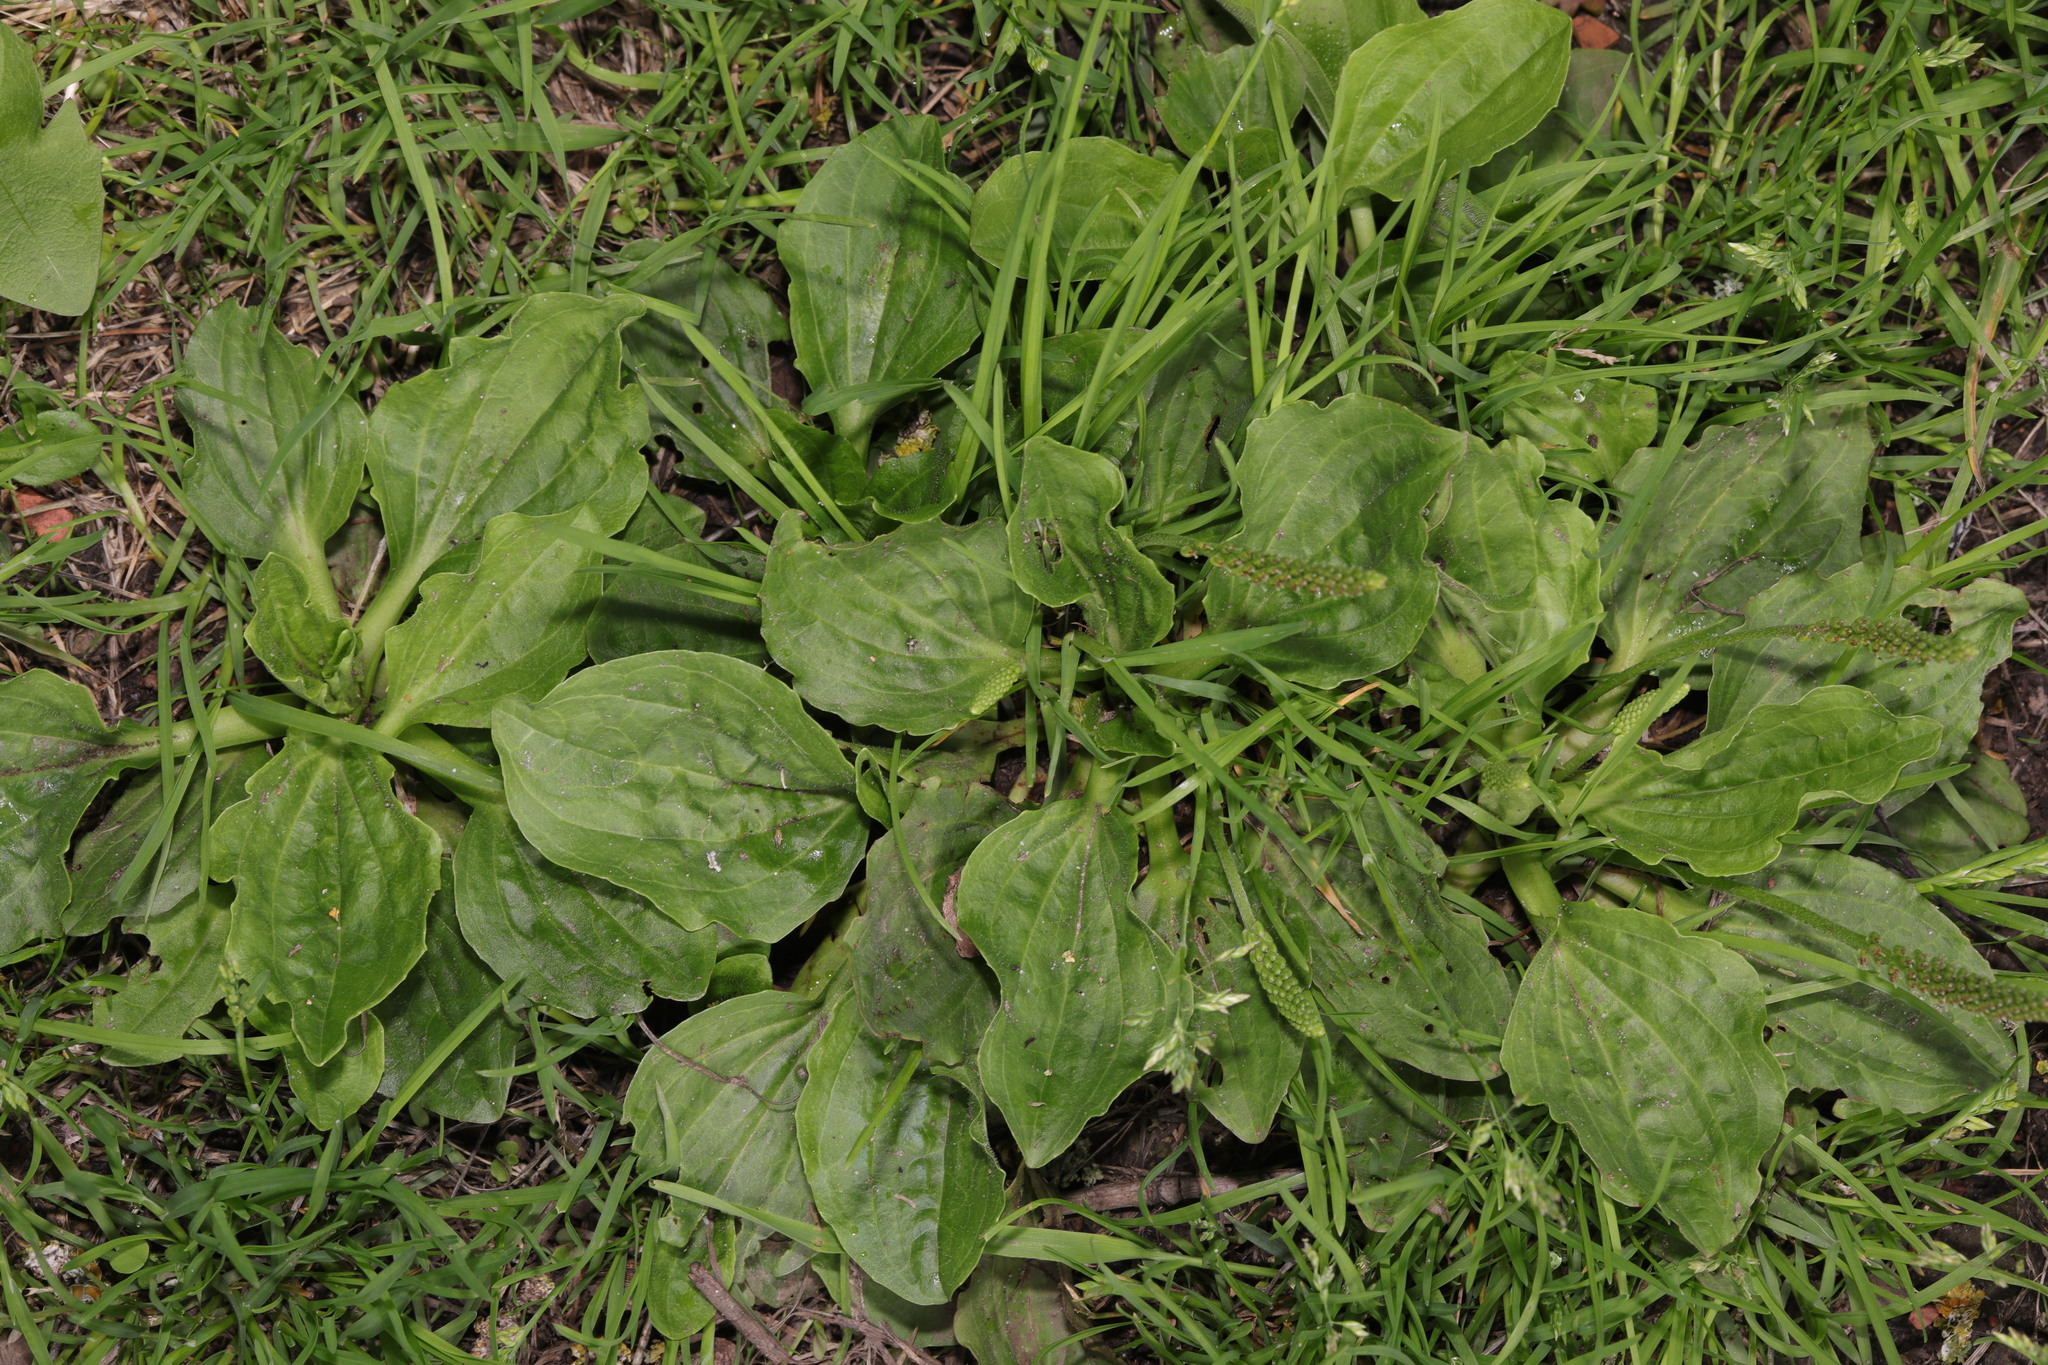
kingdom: Plantae
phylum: Tracheophyta
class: Magnoliopsida
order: Lamiales
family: Plantaginaceae
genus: Plantago
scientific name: Plantago major
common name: Common plantain
